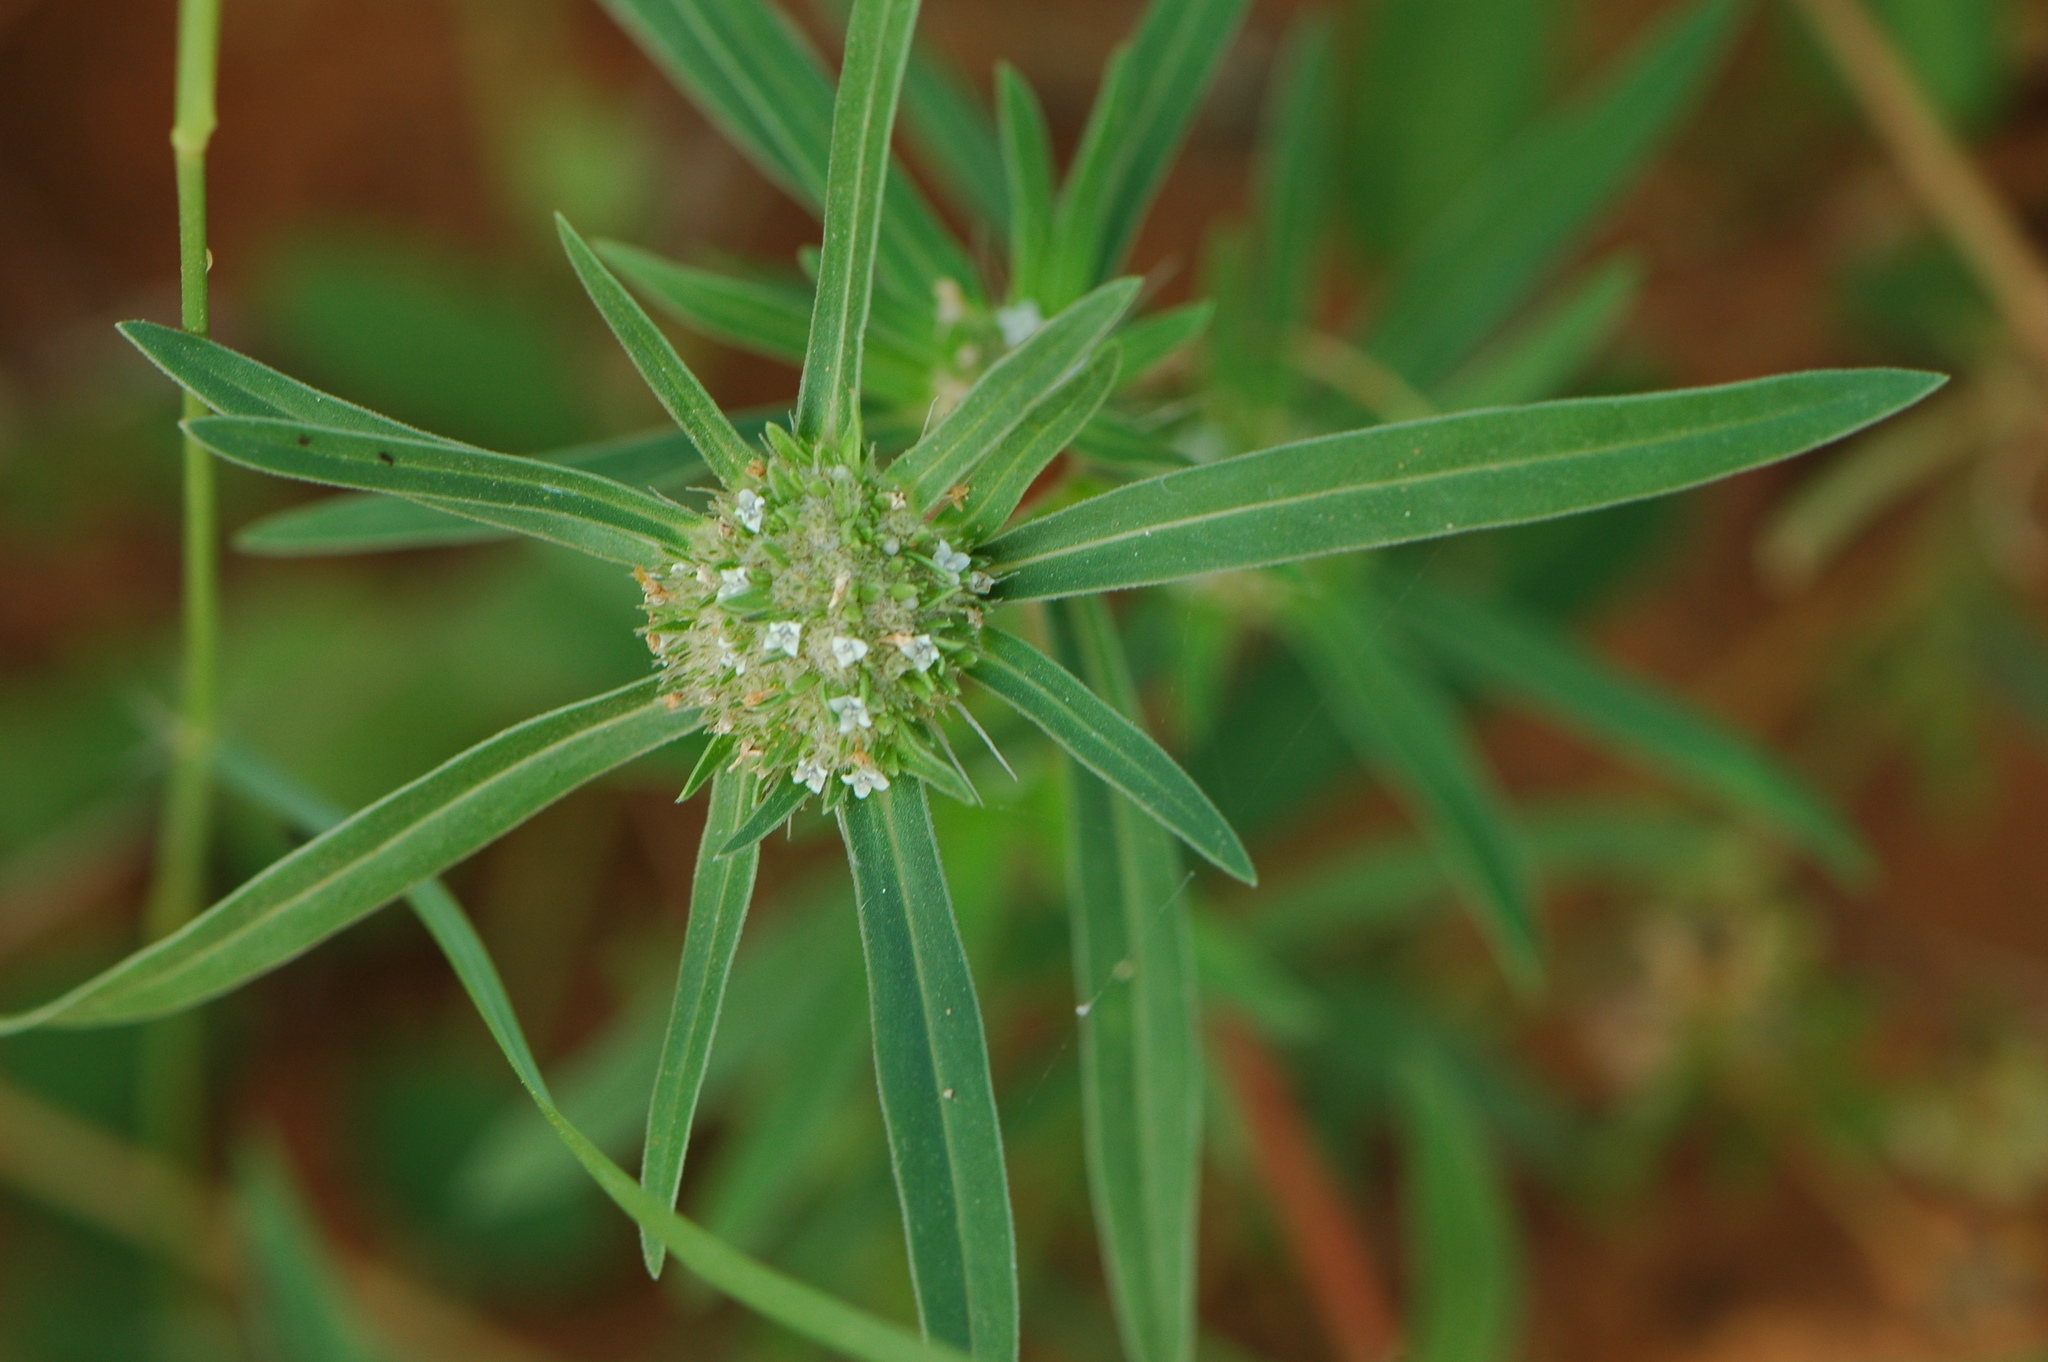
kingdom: Plantae
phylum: Tracheophyta
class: Magnoliopsida
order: Gentianales
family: Rubiaceae
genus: Spermacoce
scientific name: Spermacoce chaetocephala
